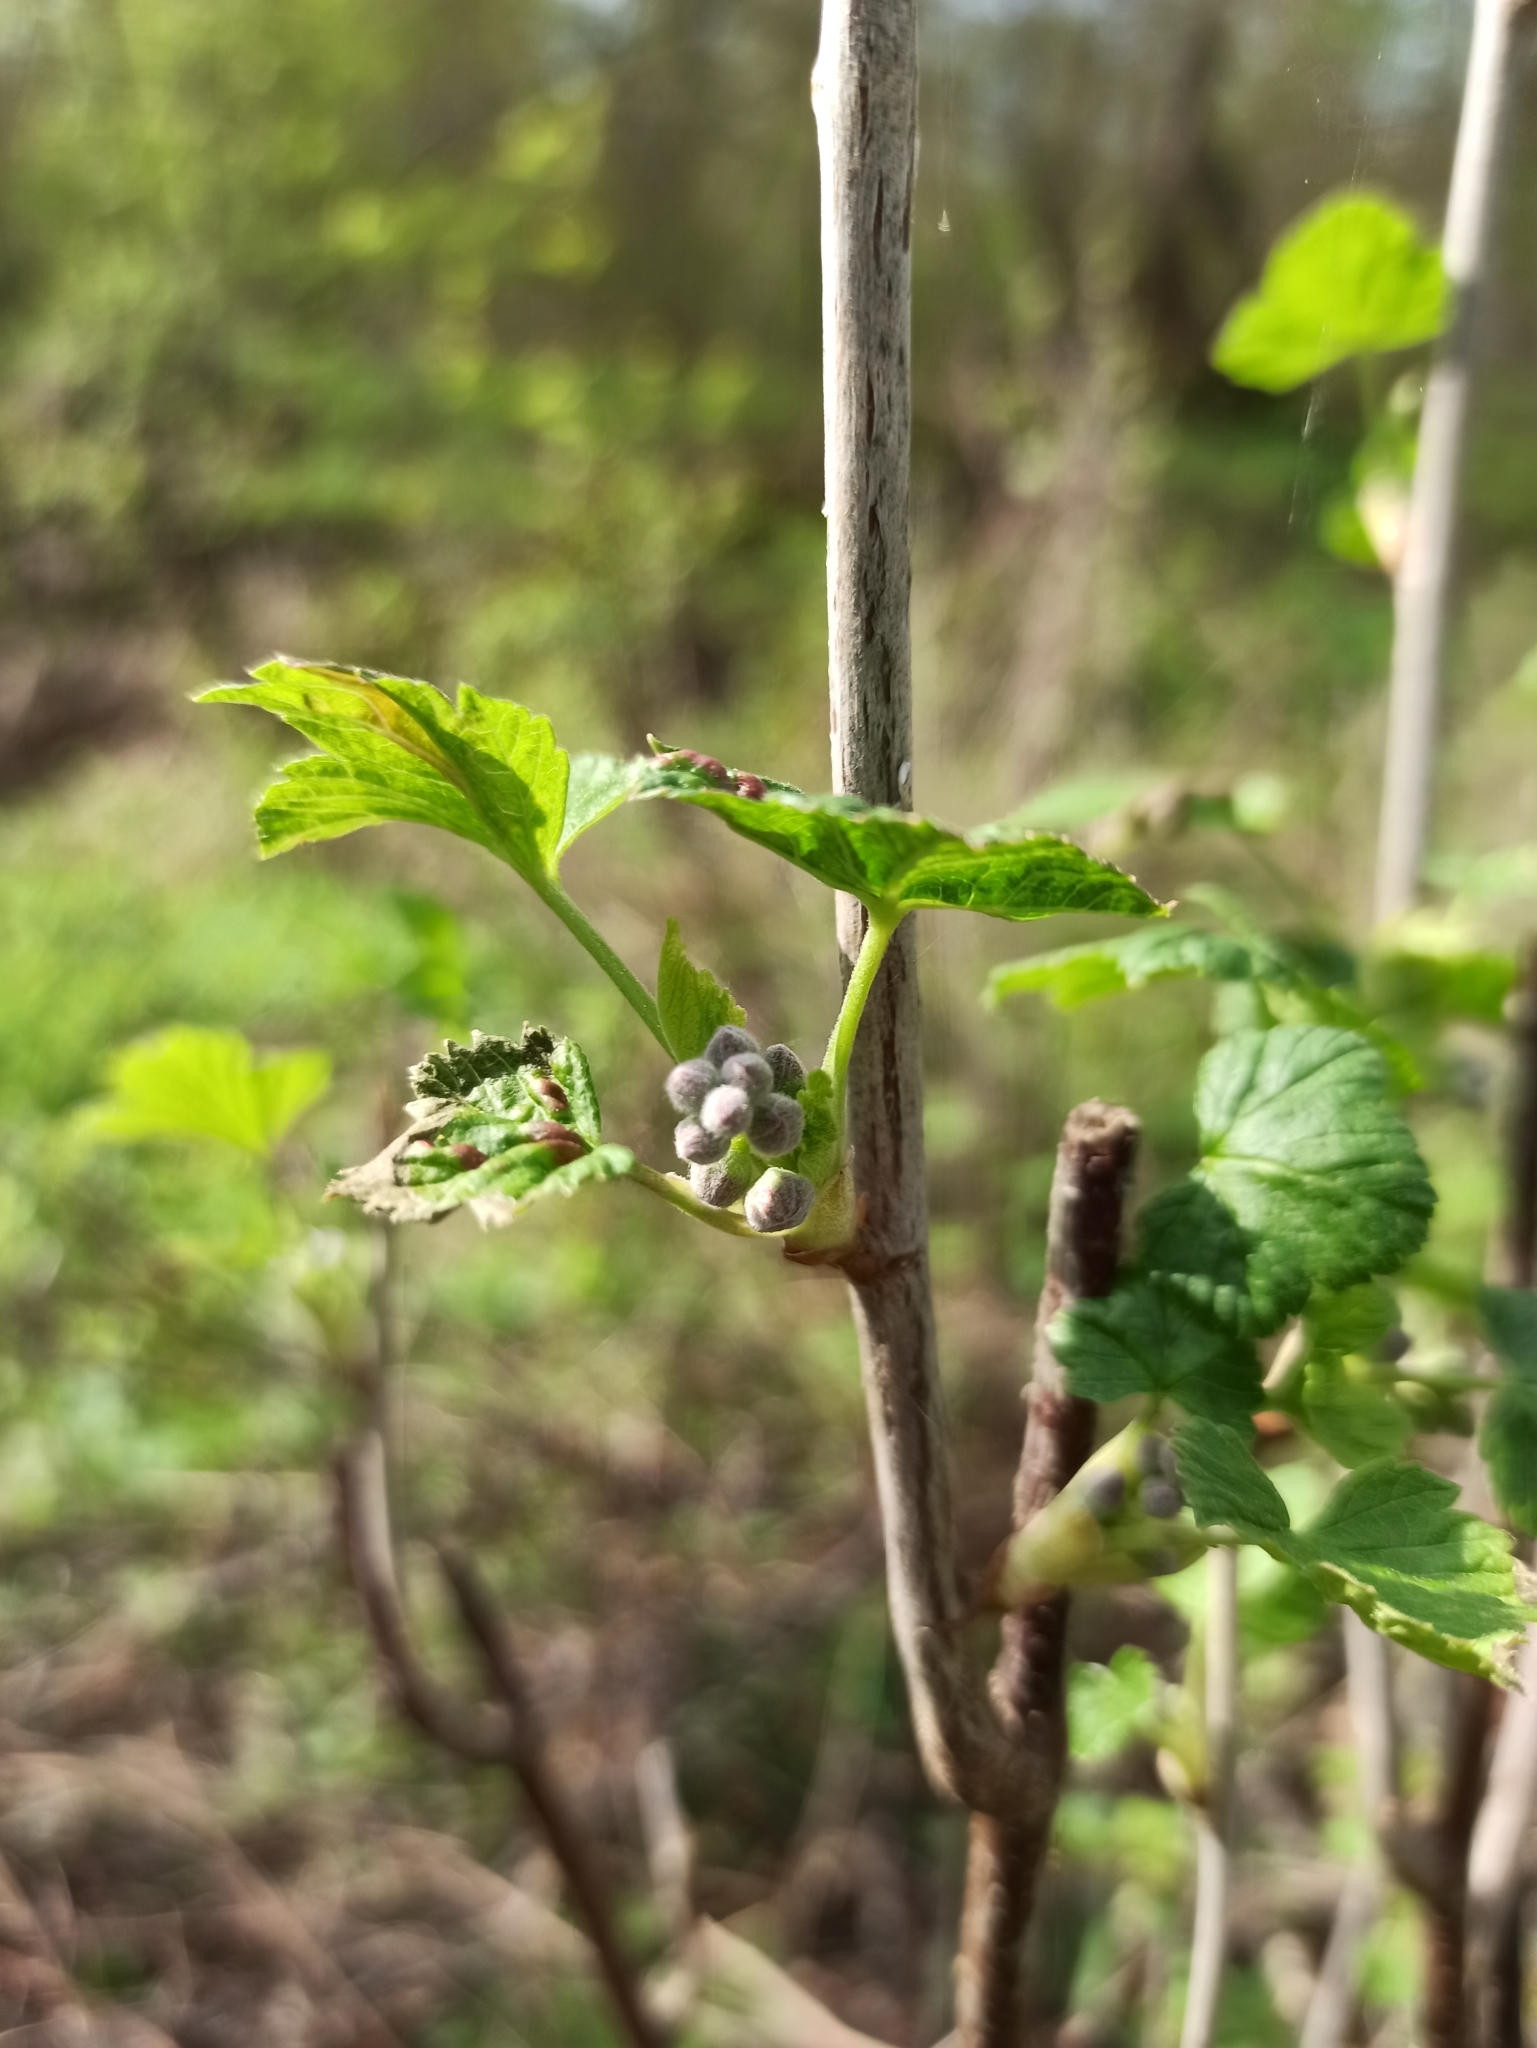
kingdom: Plantae
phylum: Tracheophyta
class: Magnoliopsida
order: Saxifragales
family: Grossulariaceae
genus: Ribes
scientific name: Ribes nigrum
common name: Black currant
